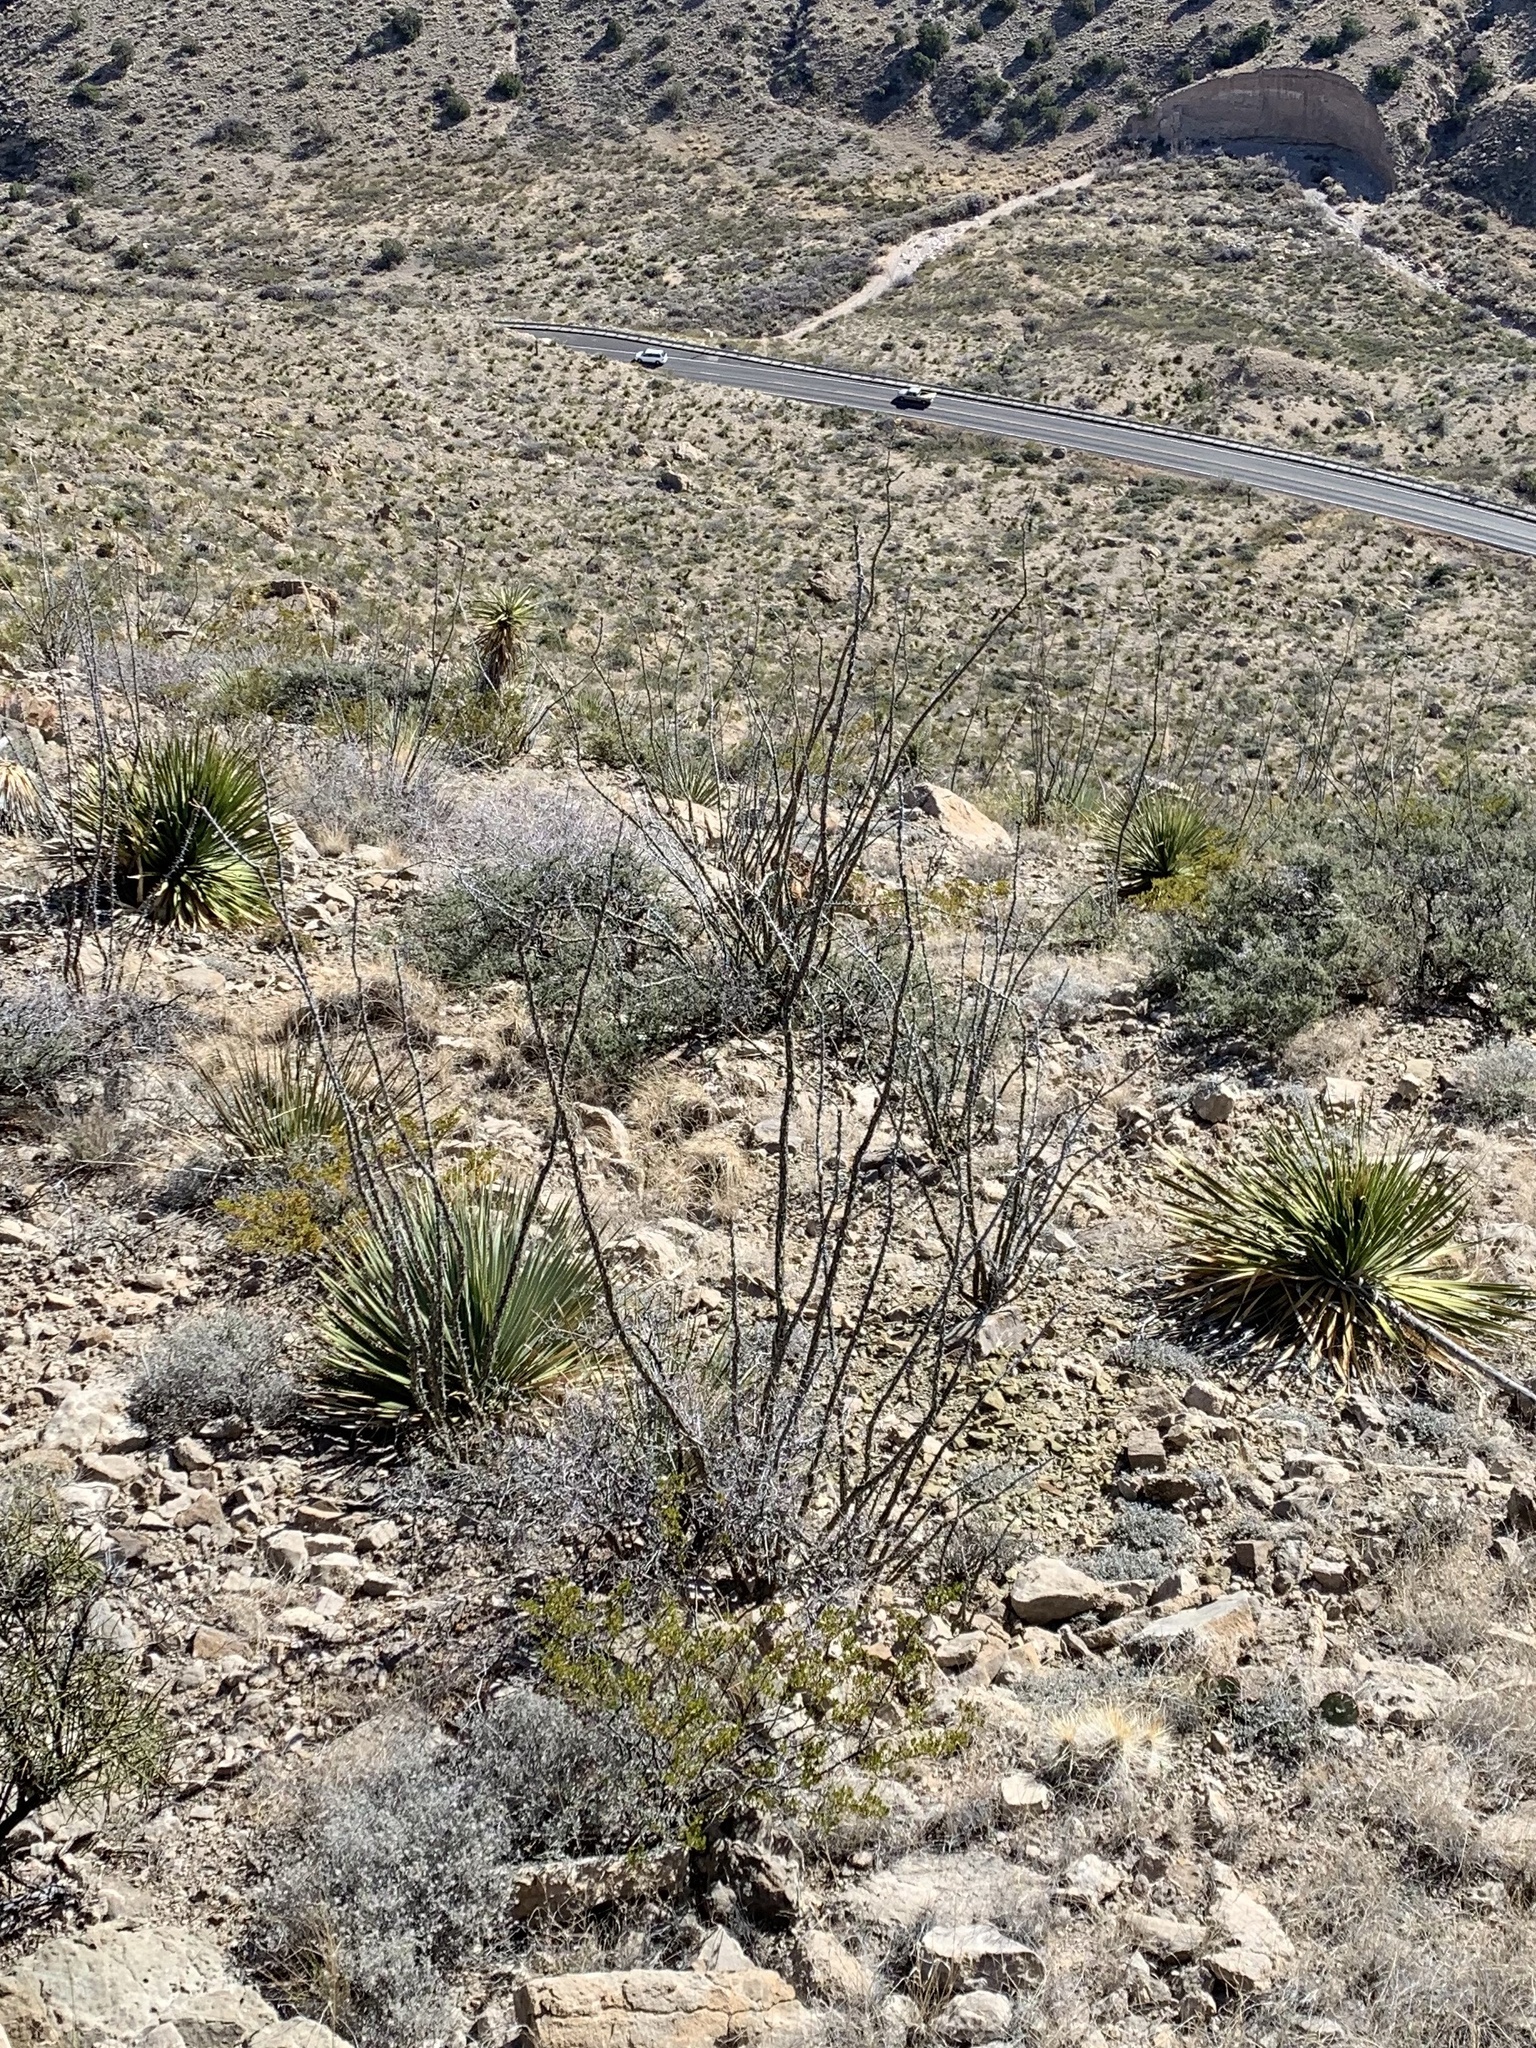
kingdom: Plantae
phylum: Tracheophyta
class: Magnoliopsida
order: Ericales
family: Fouquieriaceae
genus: Fouquieria
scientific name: Fouquieria splendens
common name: Vine-cactus
